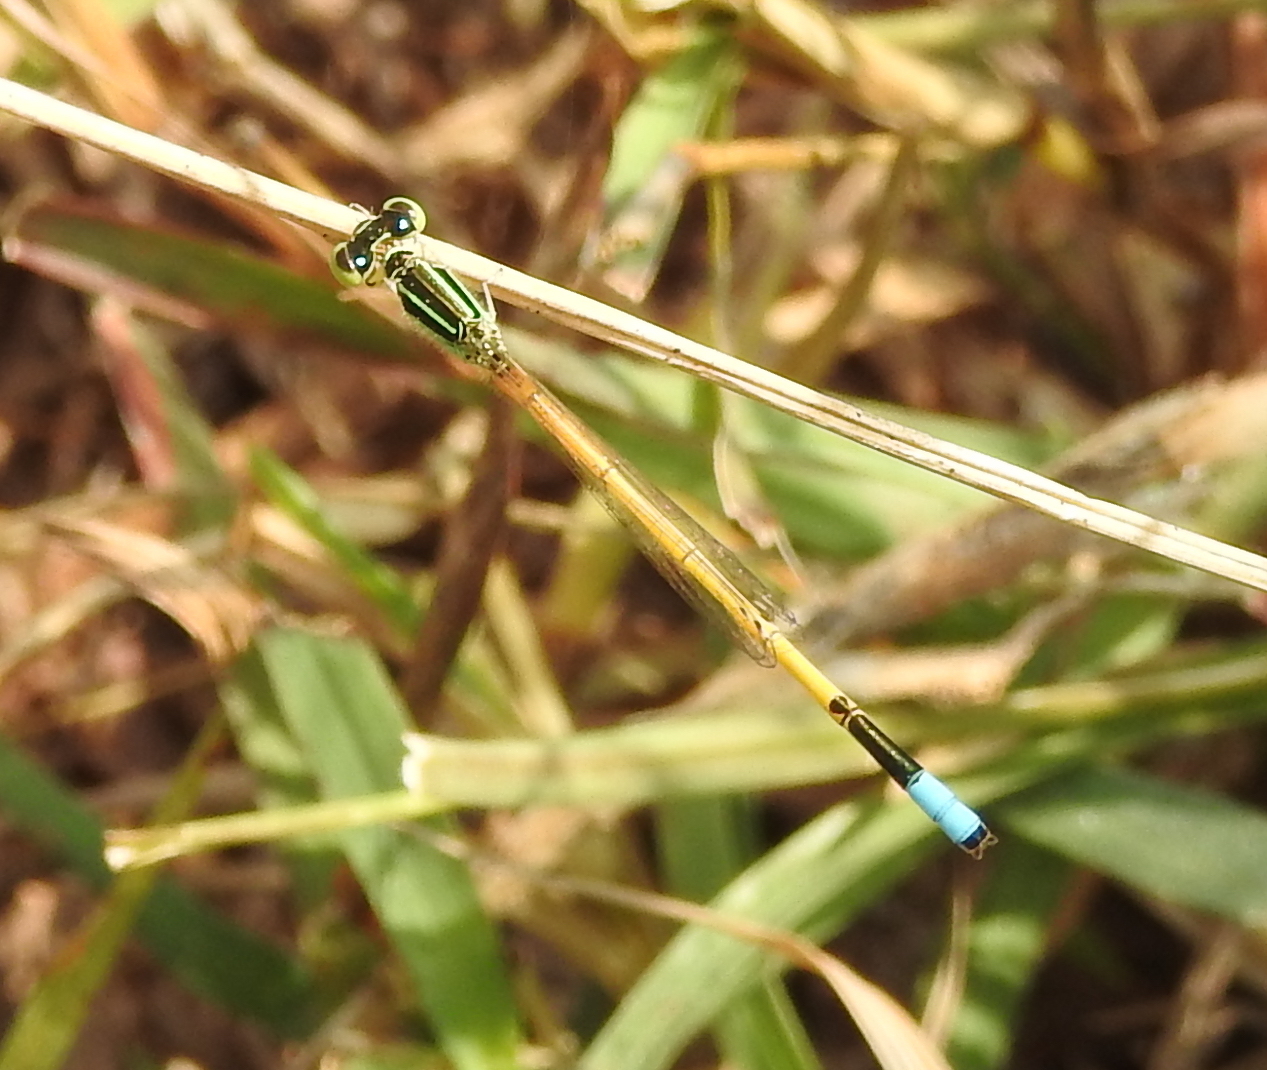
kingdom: Animalia
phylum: Arthropoda
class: Insecta
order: Odonata
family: Coenagrionidae
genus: Ischnura
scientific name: Ischnura rubilio
